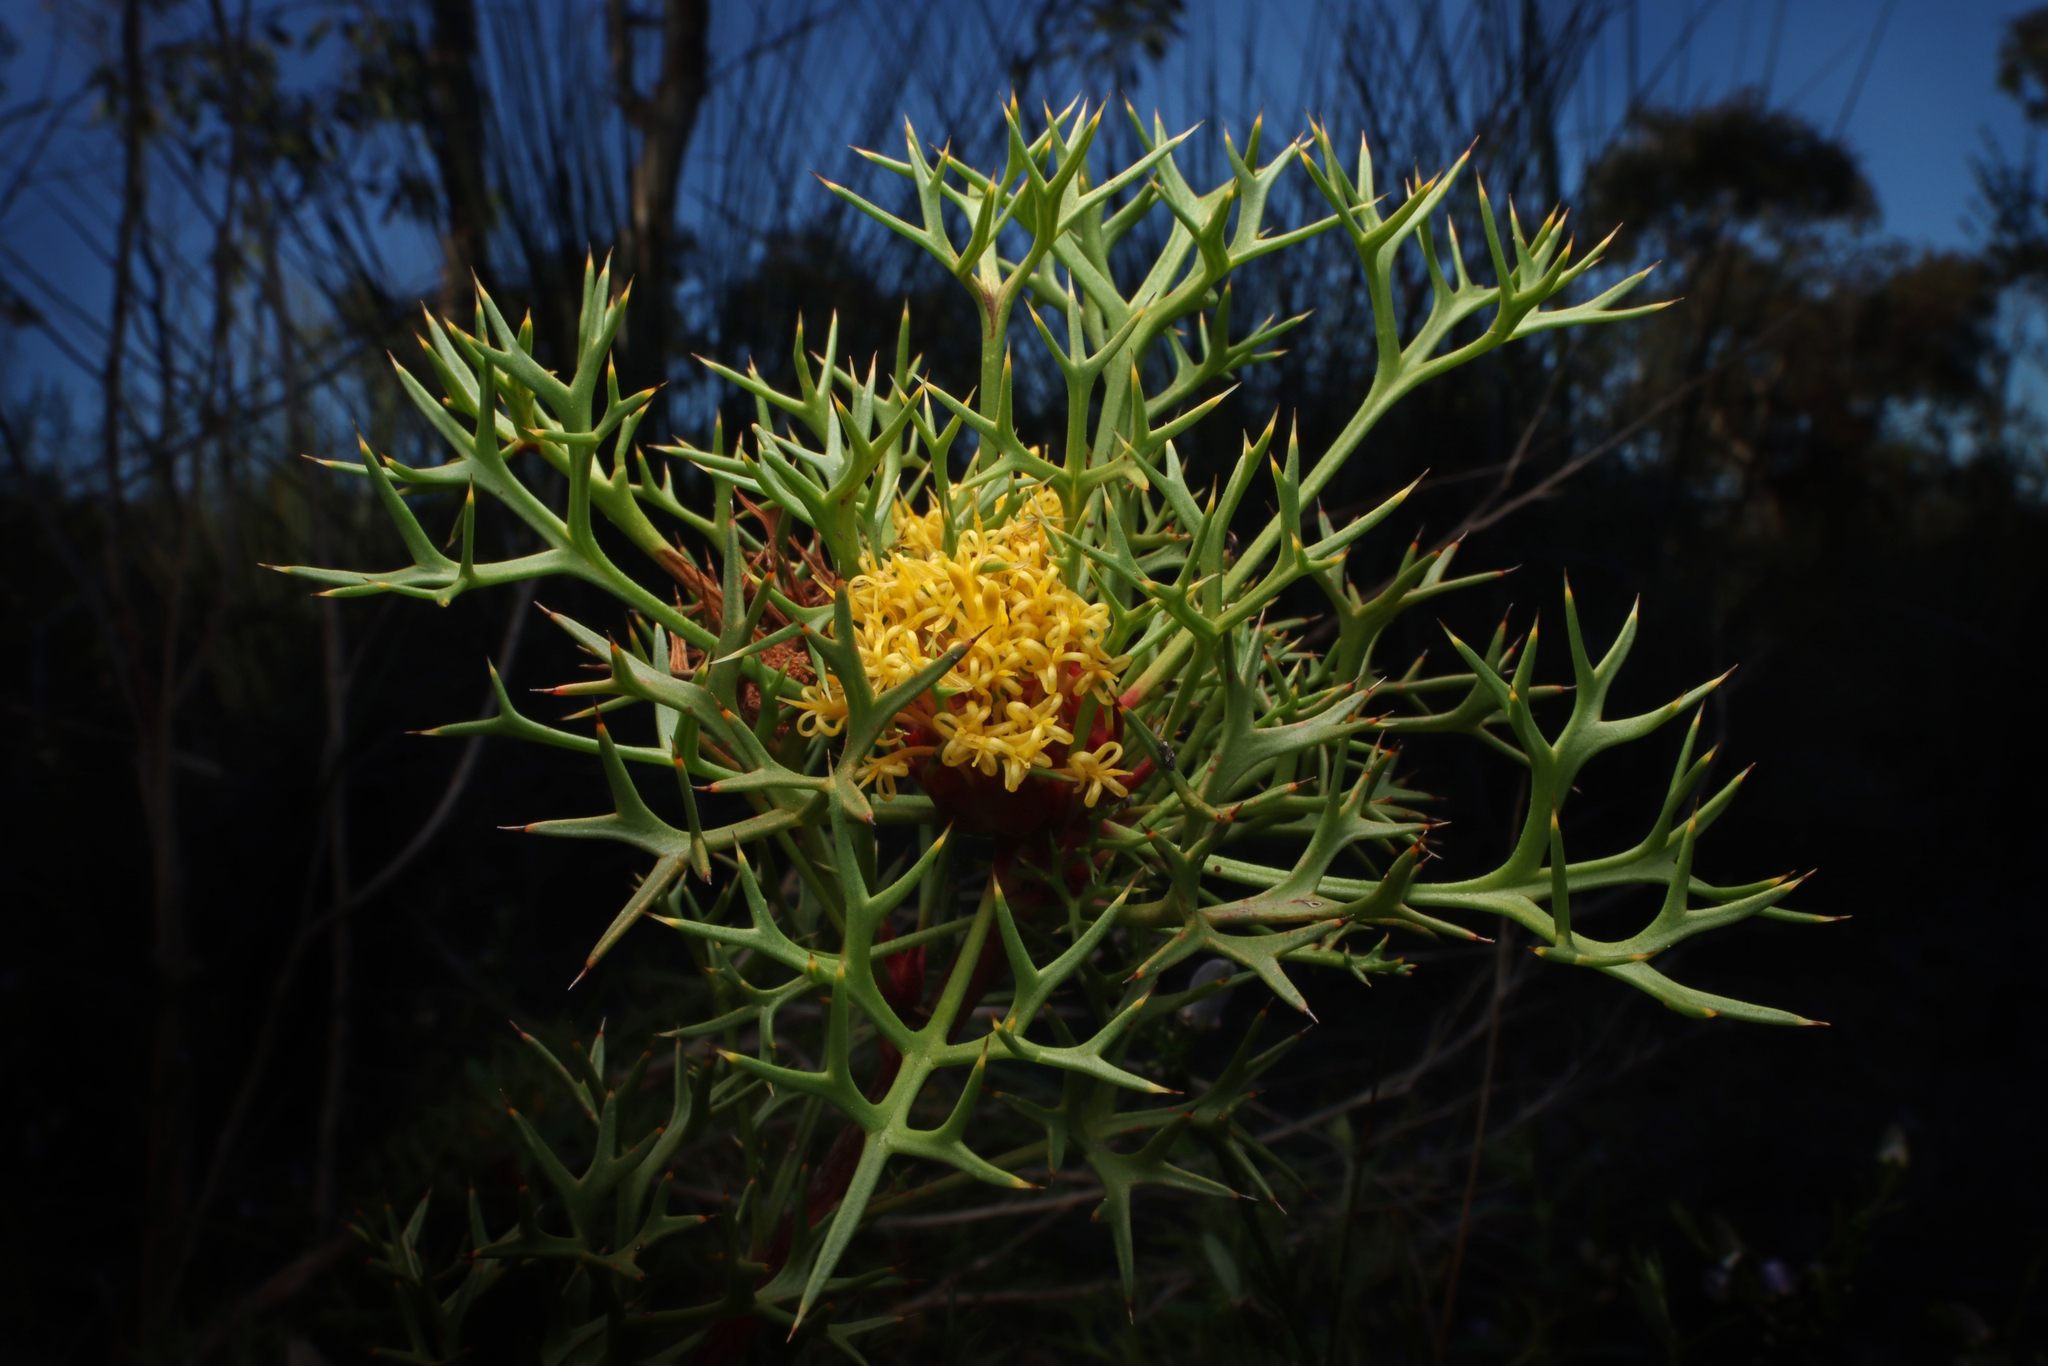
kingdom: Plantae
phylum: Tracheophyta
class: Magnoliopsida
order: Proteales
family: Proteaceae
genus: Isopogon
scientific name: Isopogon ceratophyllus
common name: Horny cone-bush
